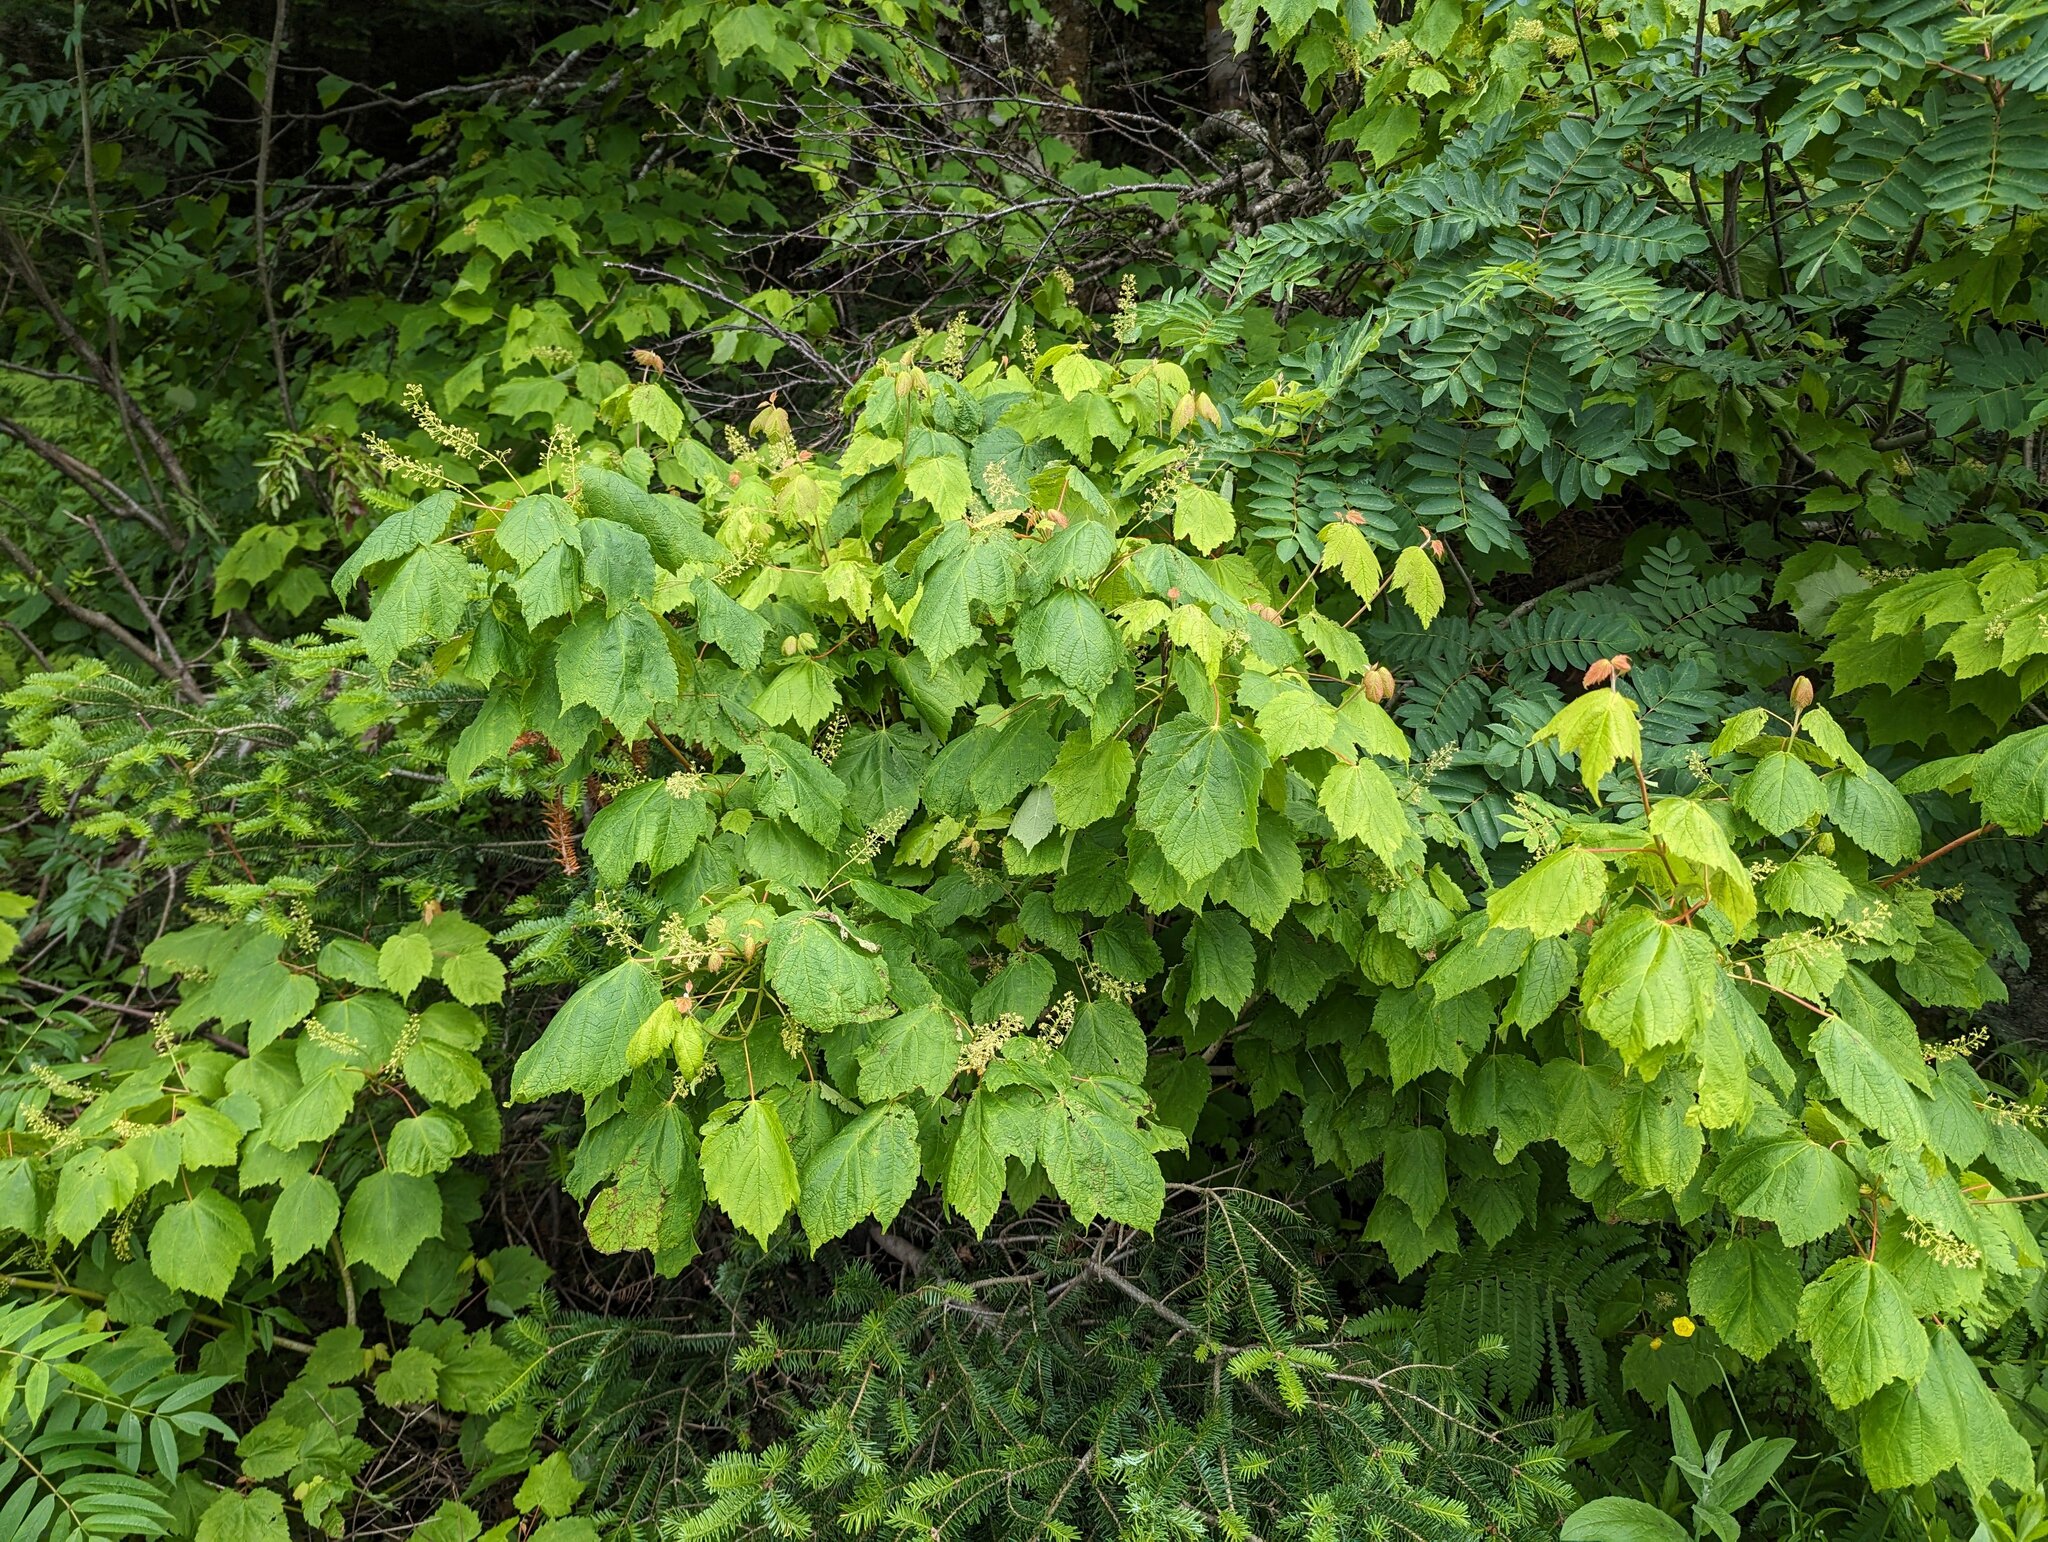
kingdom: Plantae
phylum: Tracheophyta
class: Magnoliopsida
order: Sapindales
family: Sapindaceae
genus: Acer
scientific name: Acer spicatum
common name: Mountain maple
